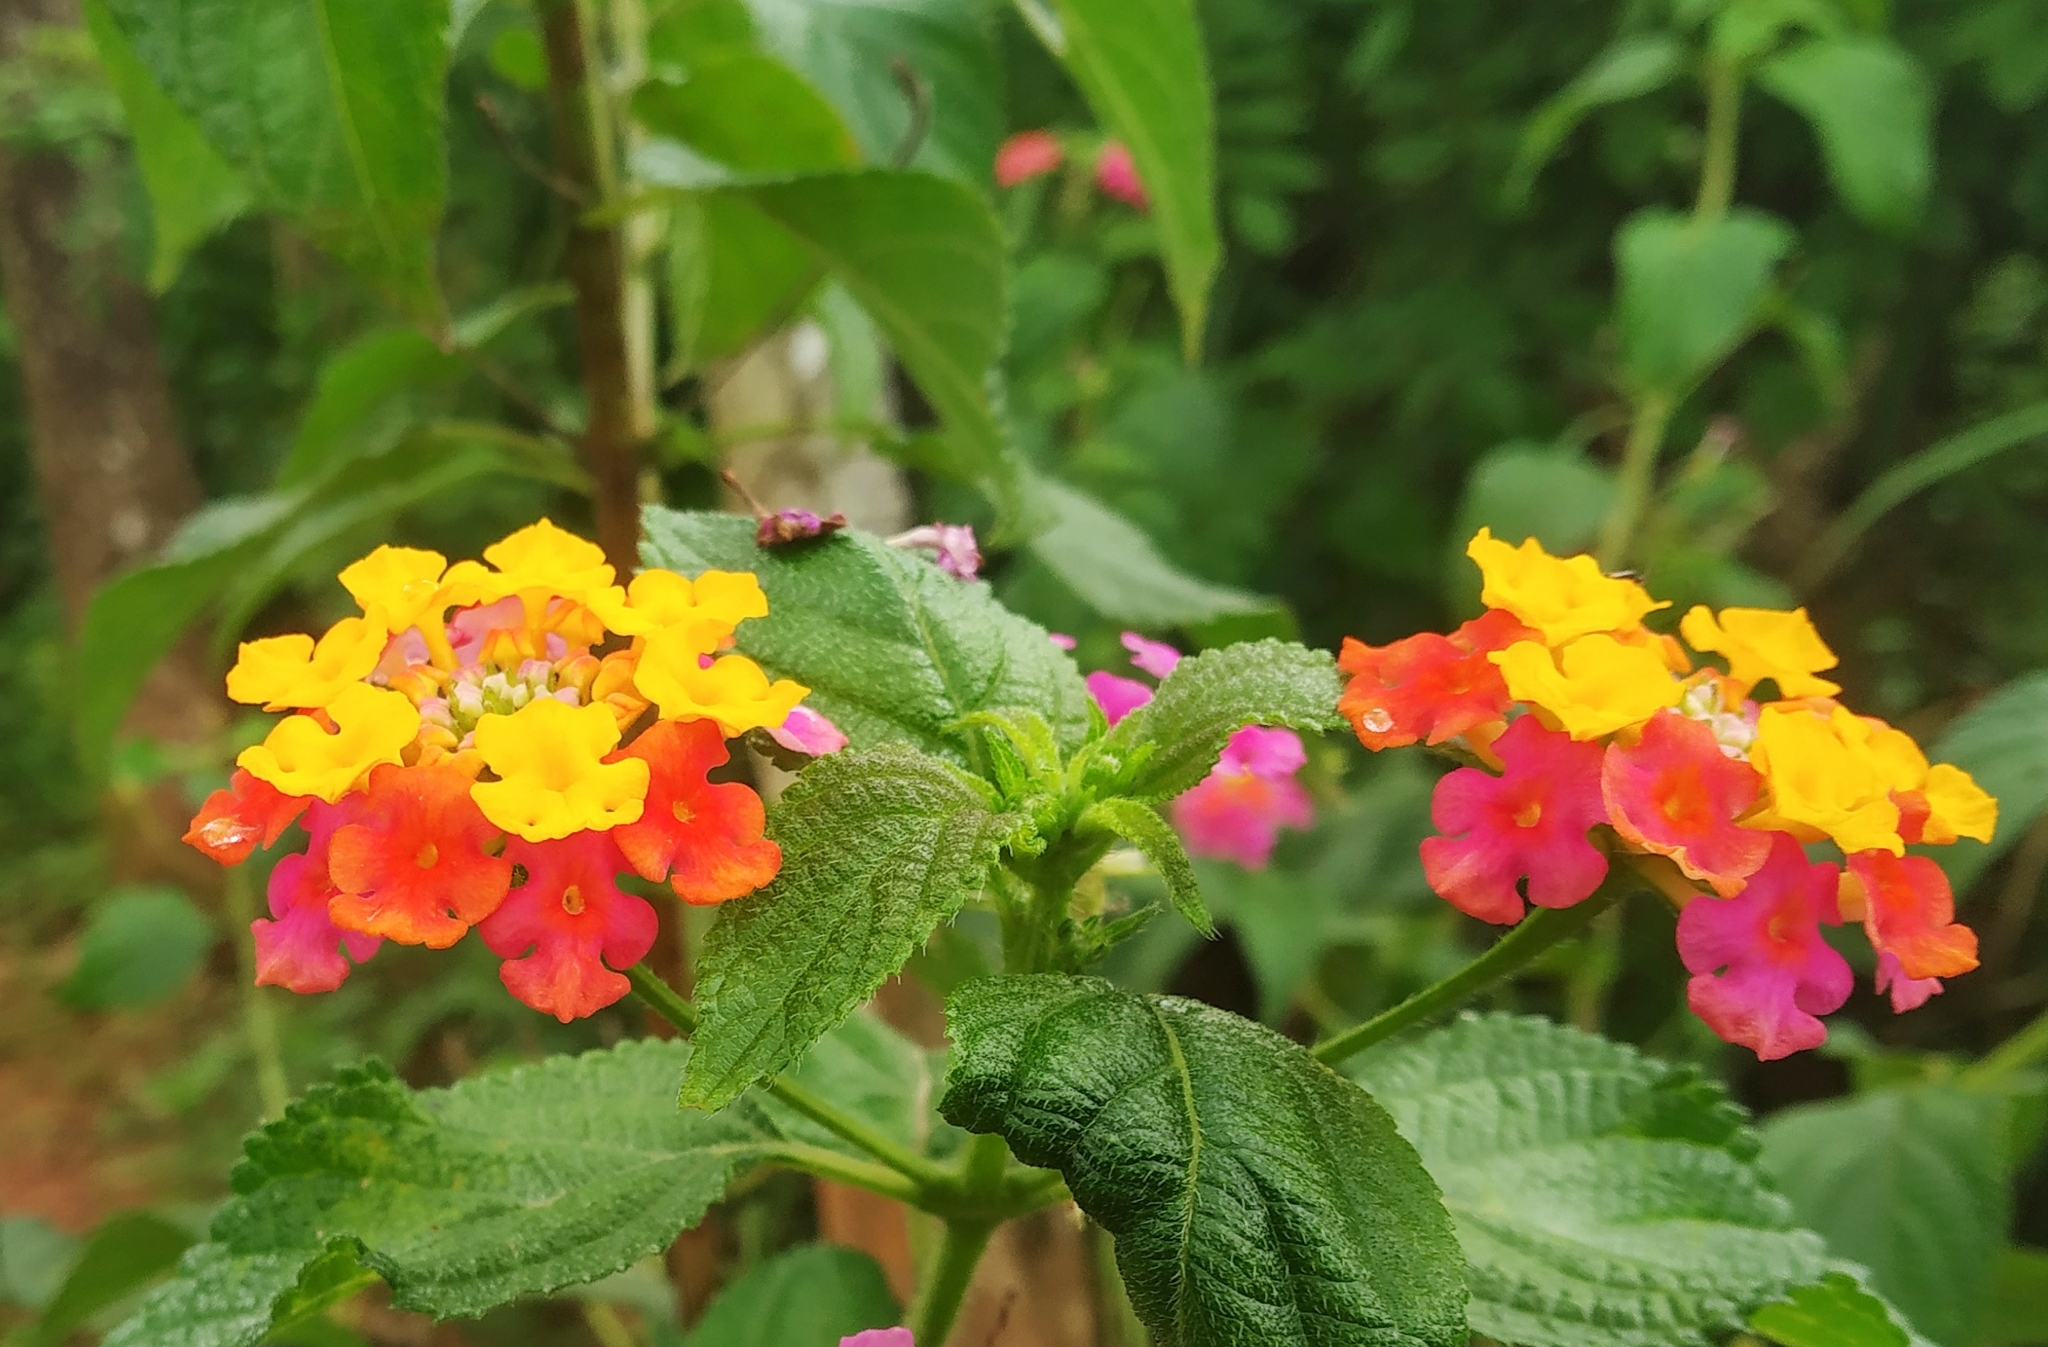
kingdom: Plantae
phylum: Tracheophyta
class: Magnoliopsida
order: Lamiales
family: Verbenaceae
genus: Lantana
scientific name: Lantana camara
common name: Lantana
